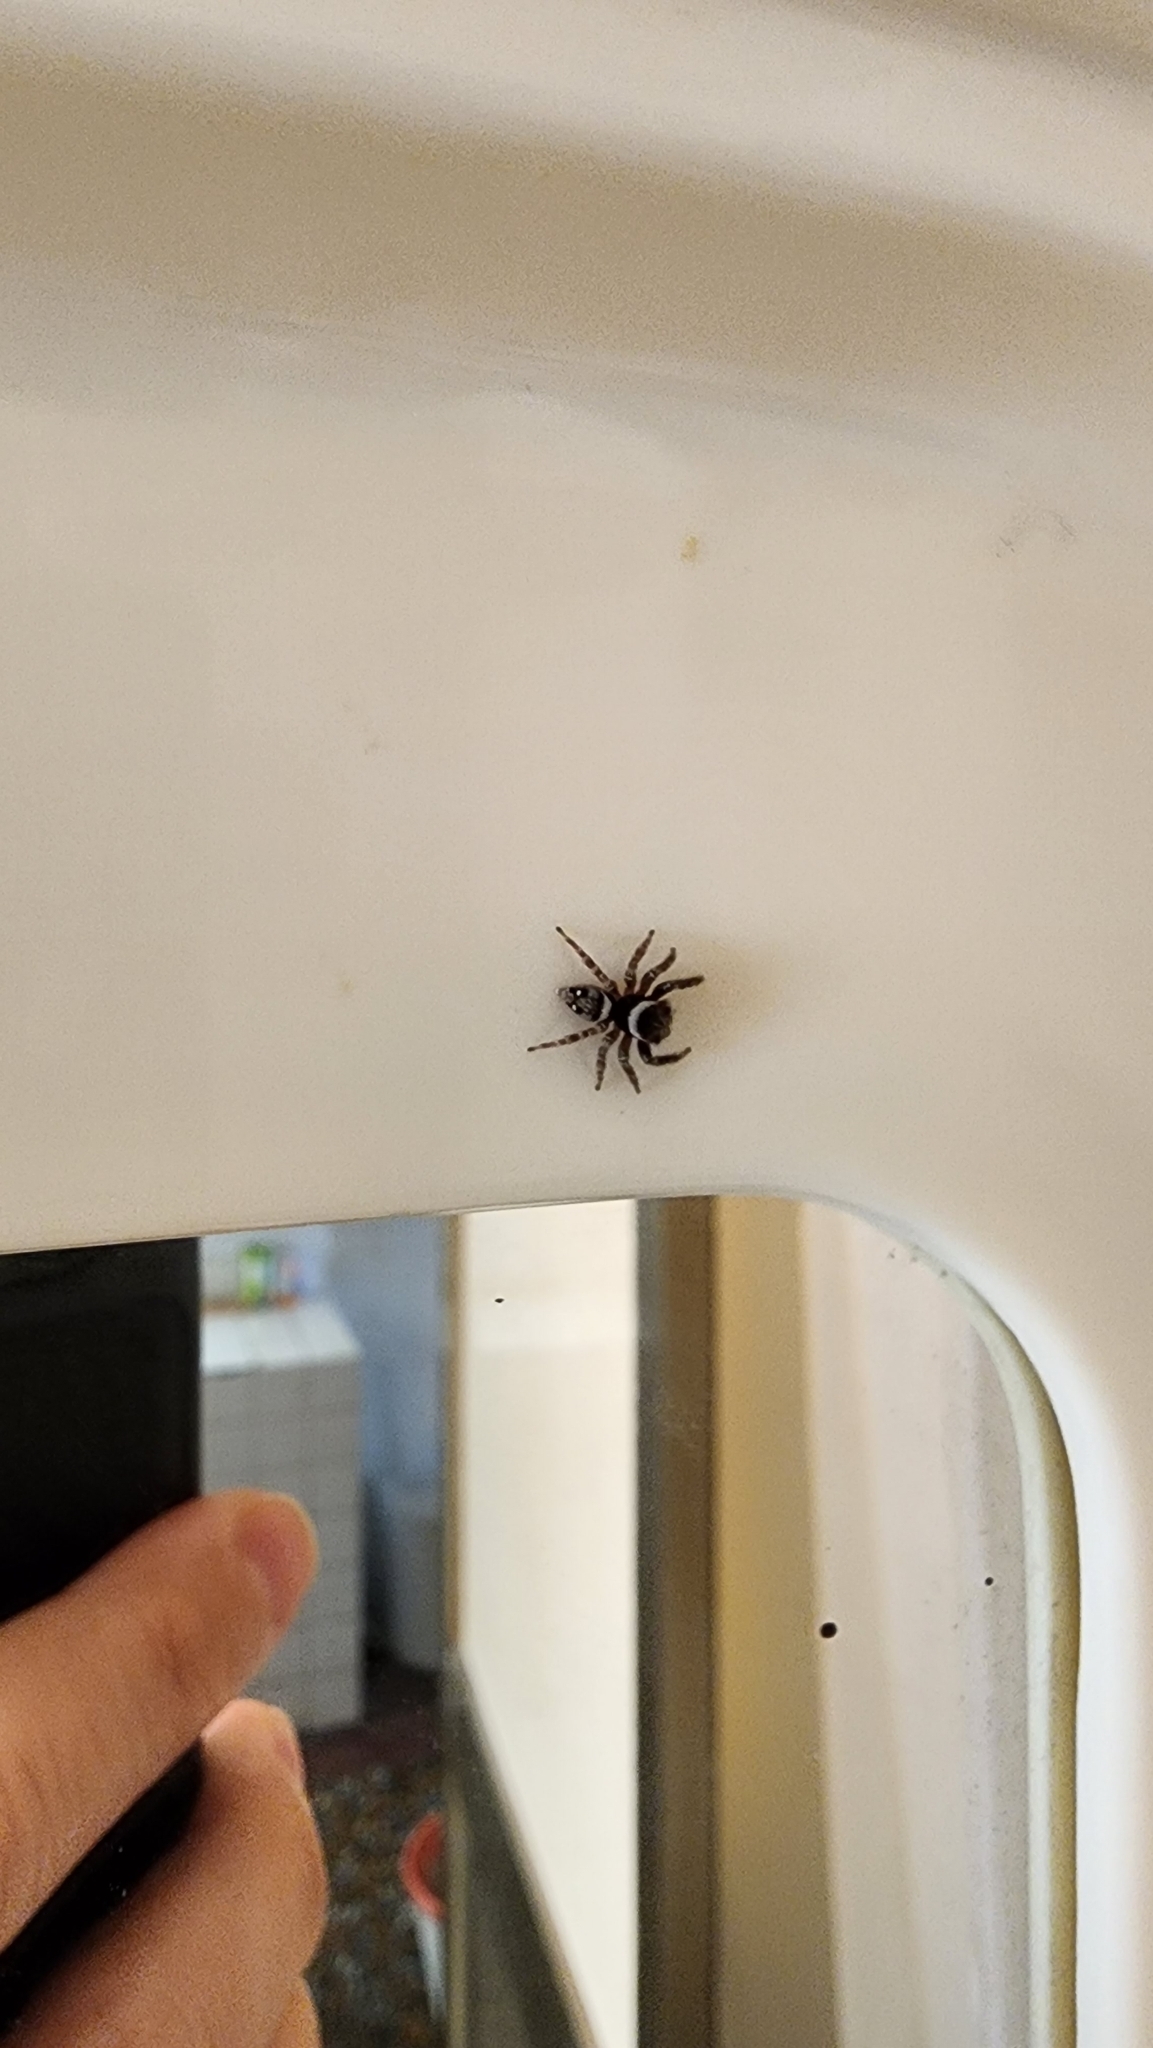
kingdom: Animalia
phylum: Arthropoda
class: Arachnida
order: Araneae
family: Salticidae
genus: Hasarius
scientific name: Hasarius adansoni
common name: Jumping spider
